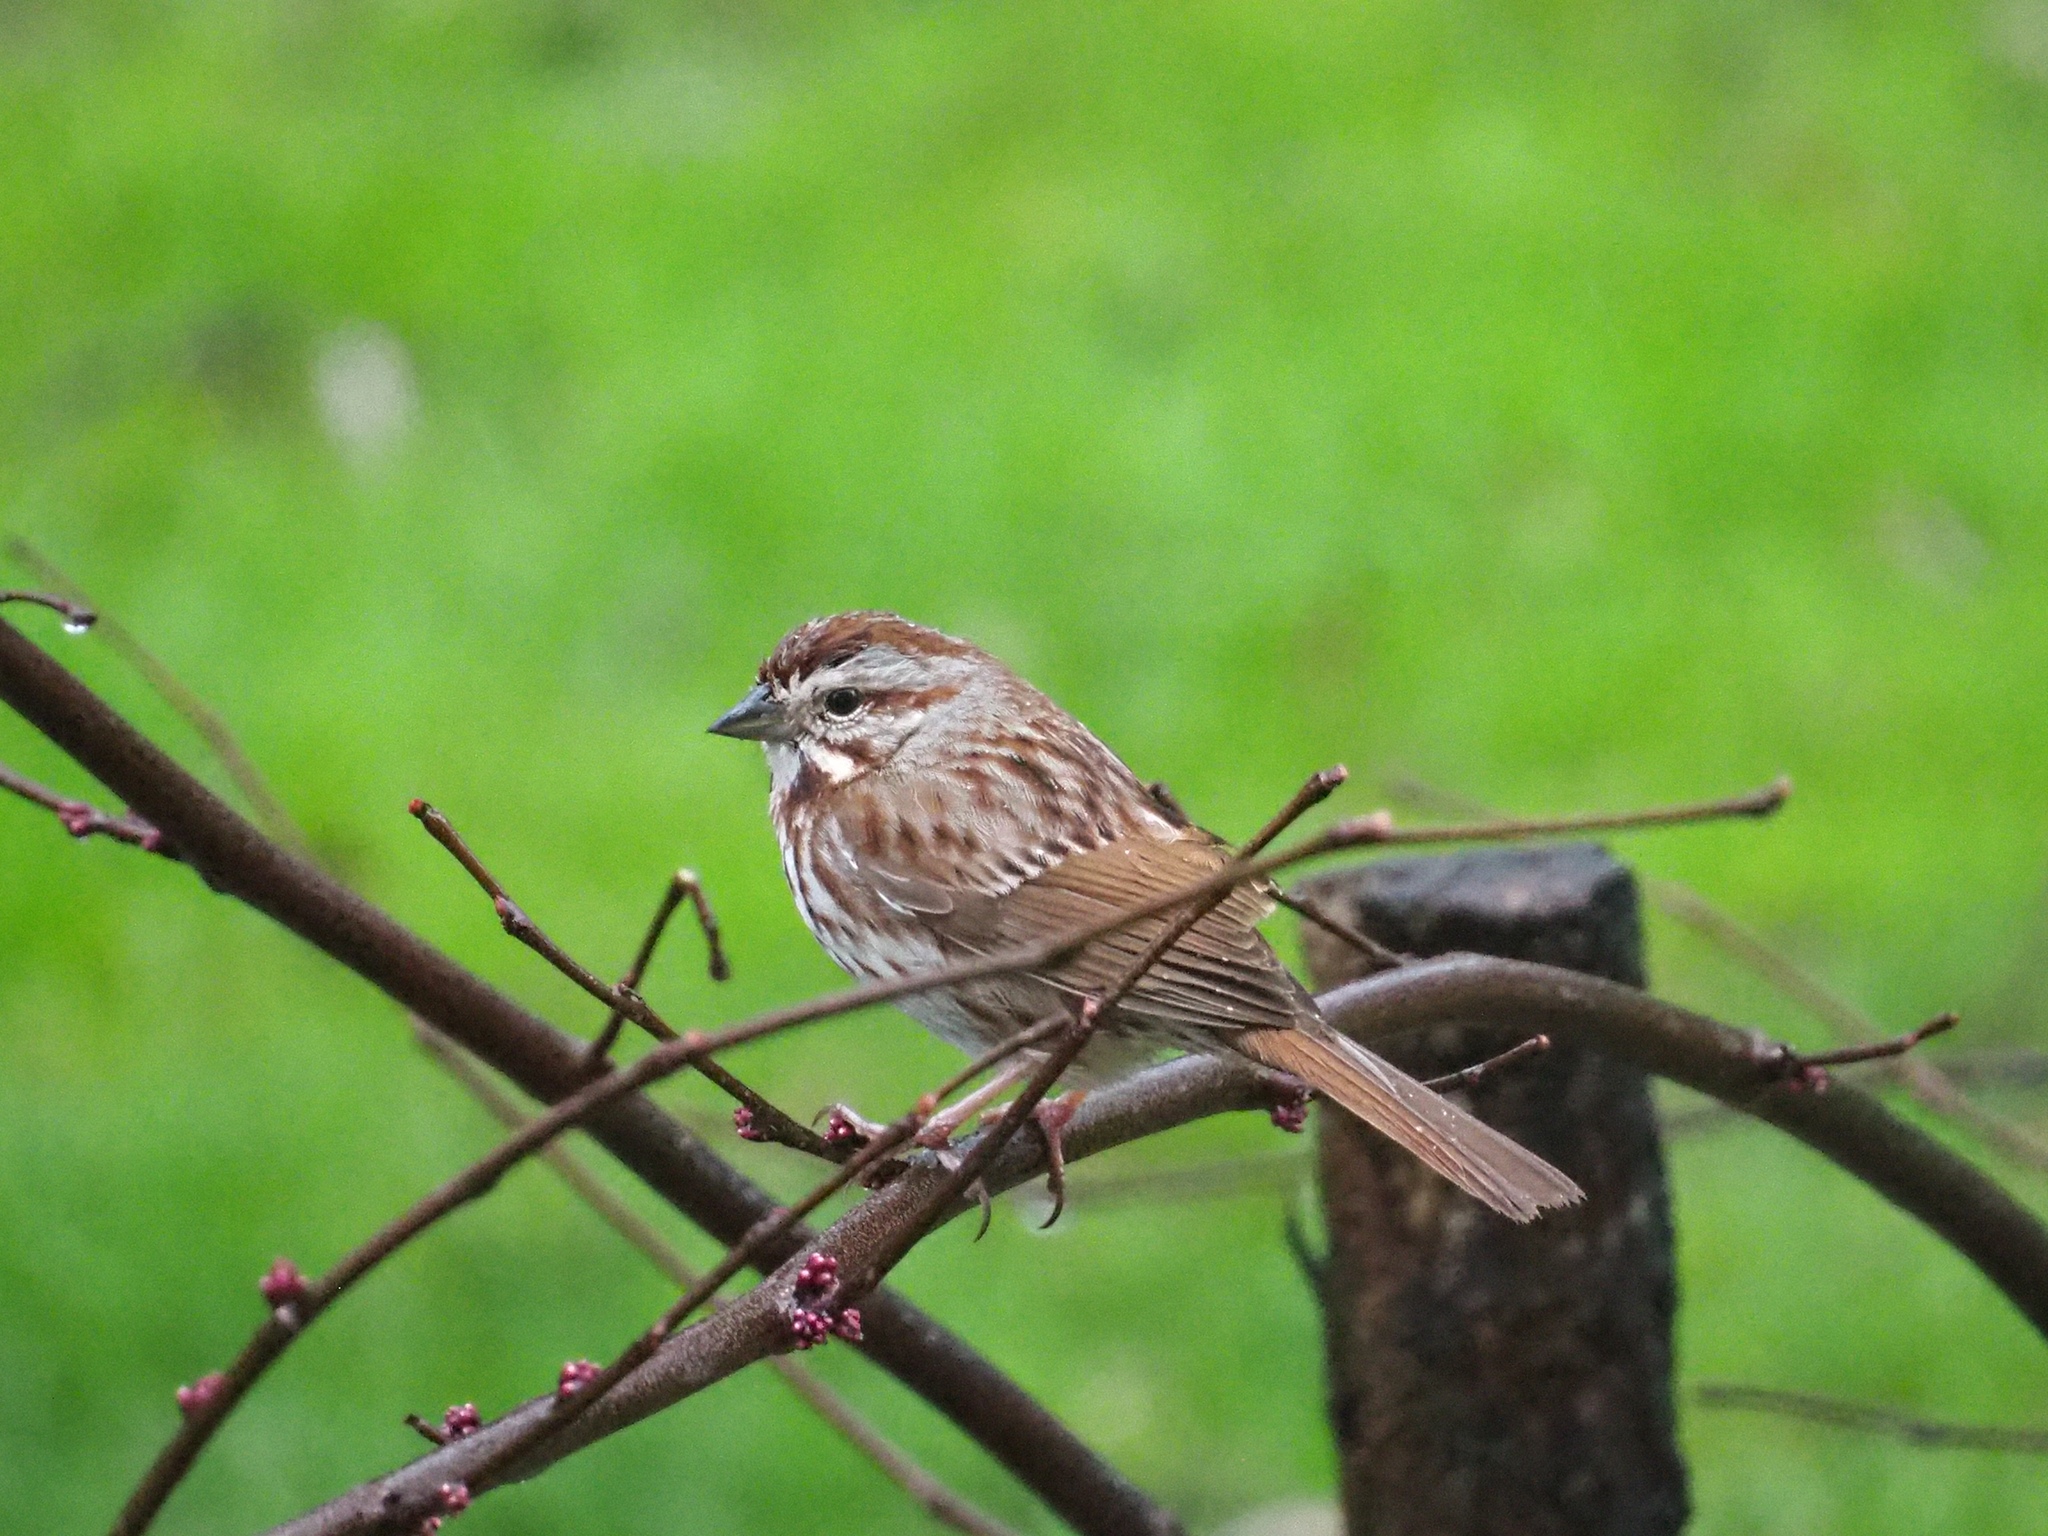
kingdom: Animalia
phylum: Chordata
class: Aves
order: Passeriformes
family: Passerellidae
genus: Melospiza
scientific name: Melospiza melodia
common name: Song sparrow
